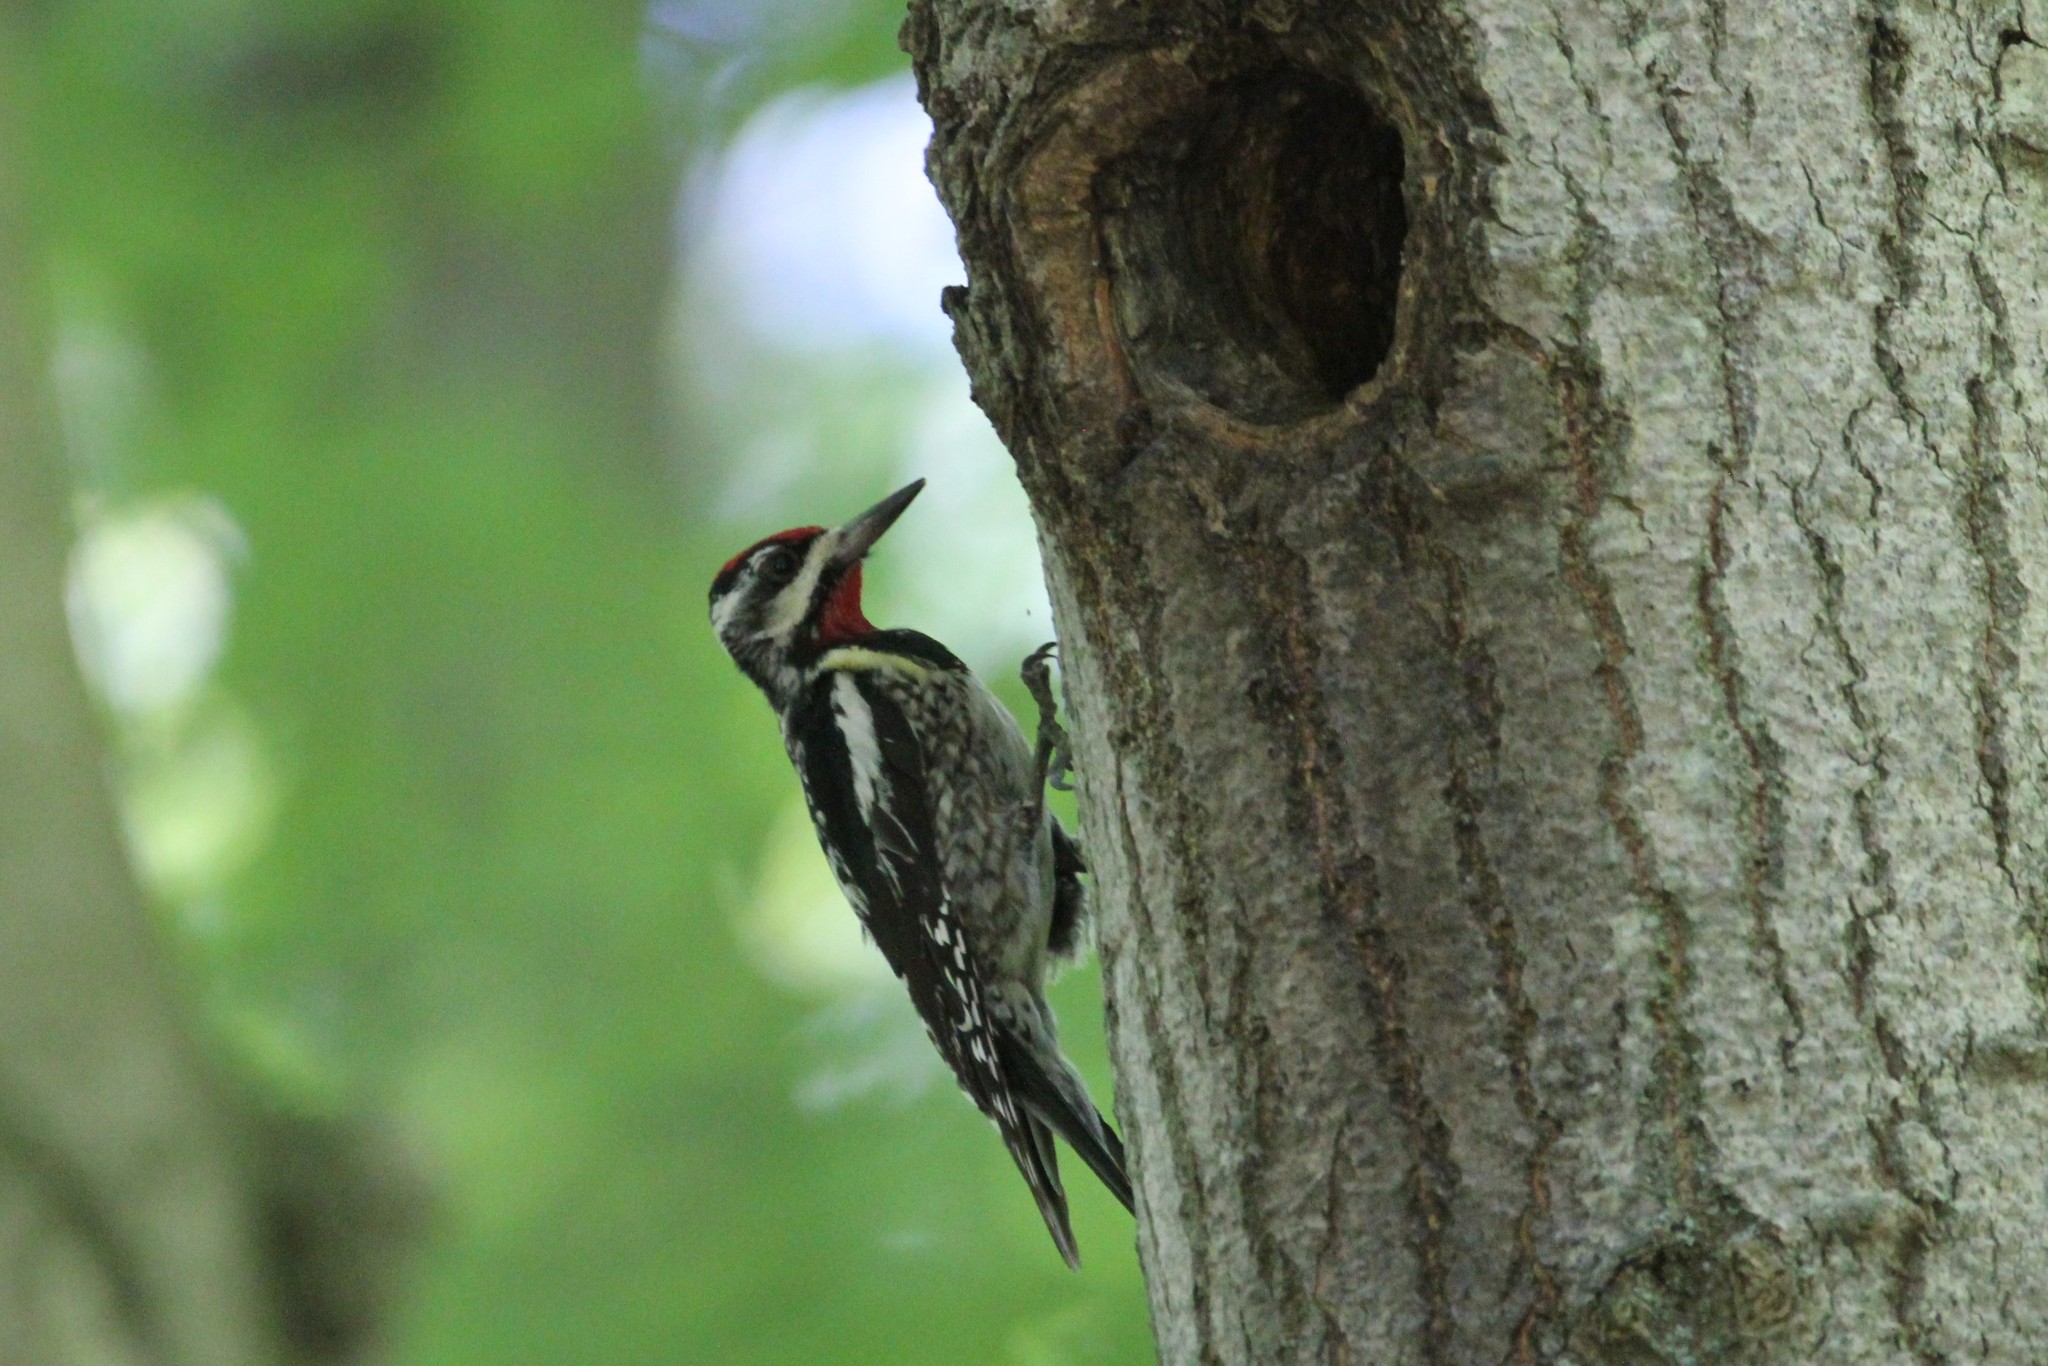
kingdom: Animalia
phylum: Chordata
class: Aves
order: Piciformes
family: Picidae
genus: Sphyrapicus
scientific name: Sphyrapicus varius
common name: Yellow-bellied sapsucker
